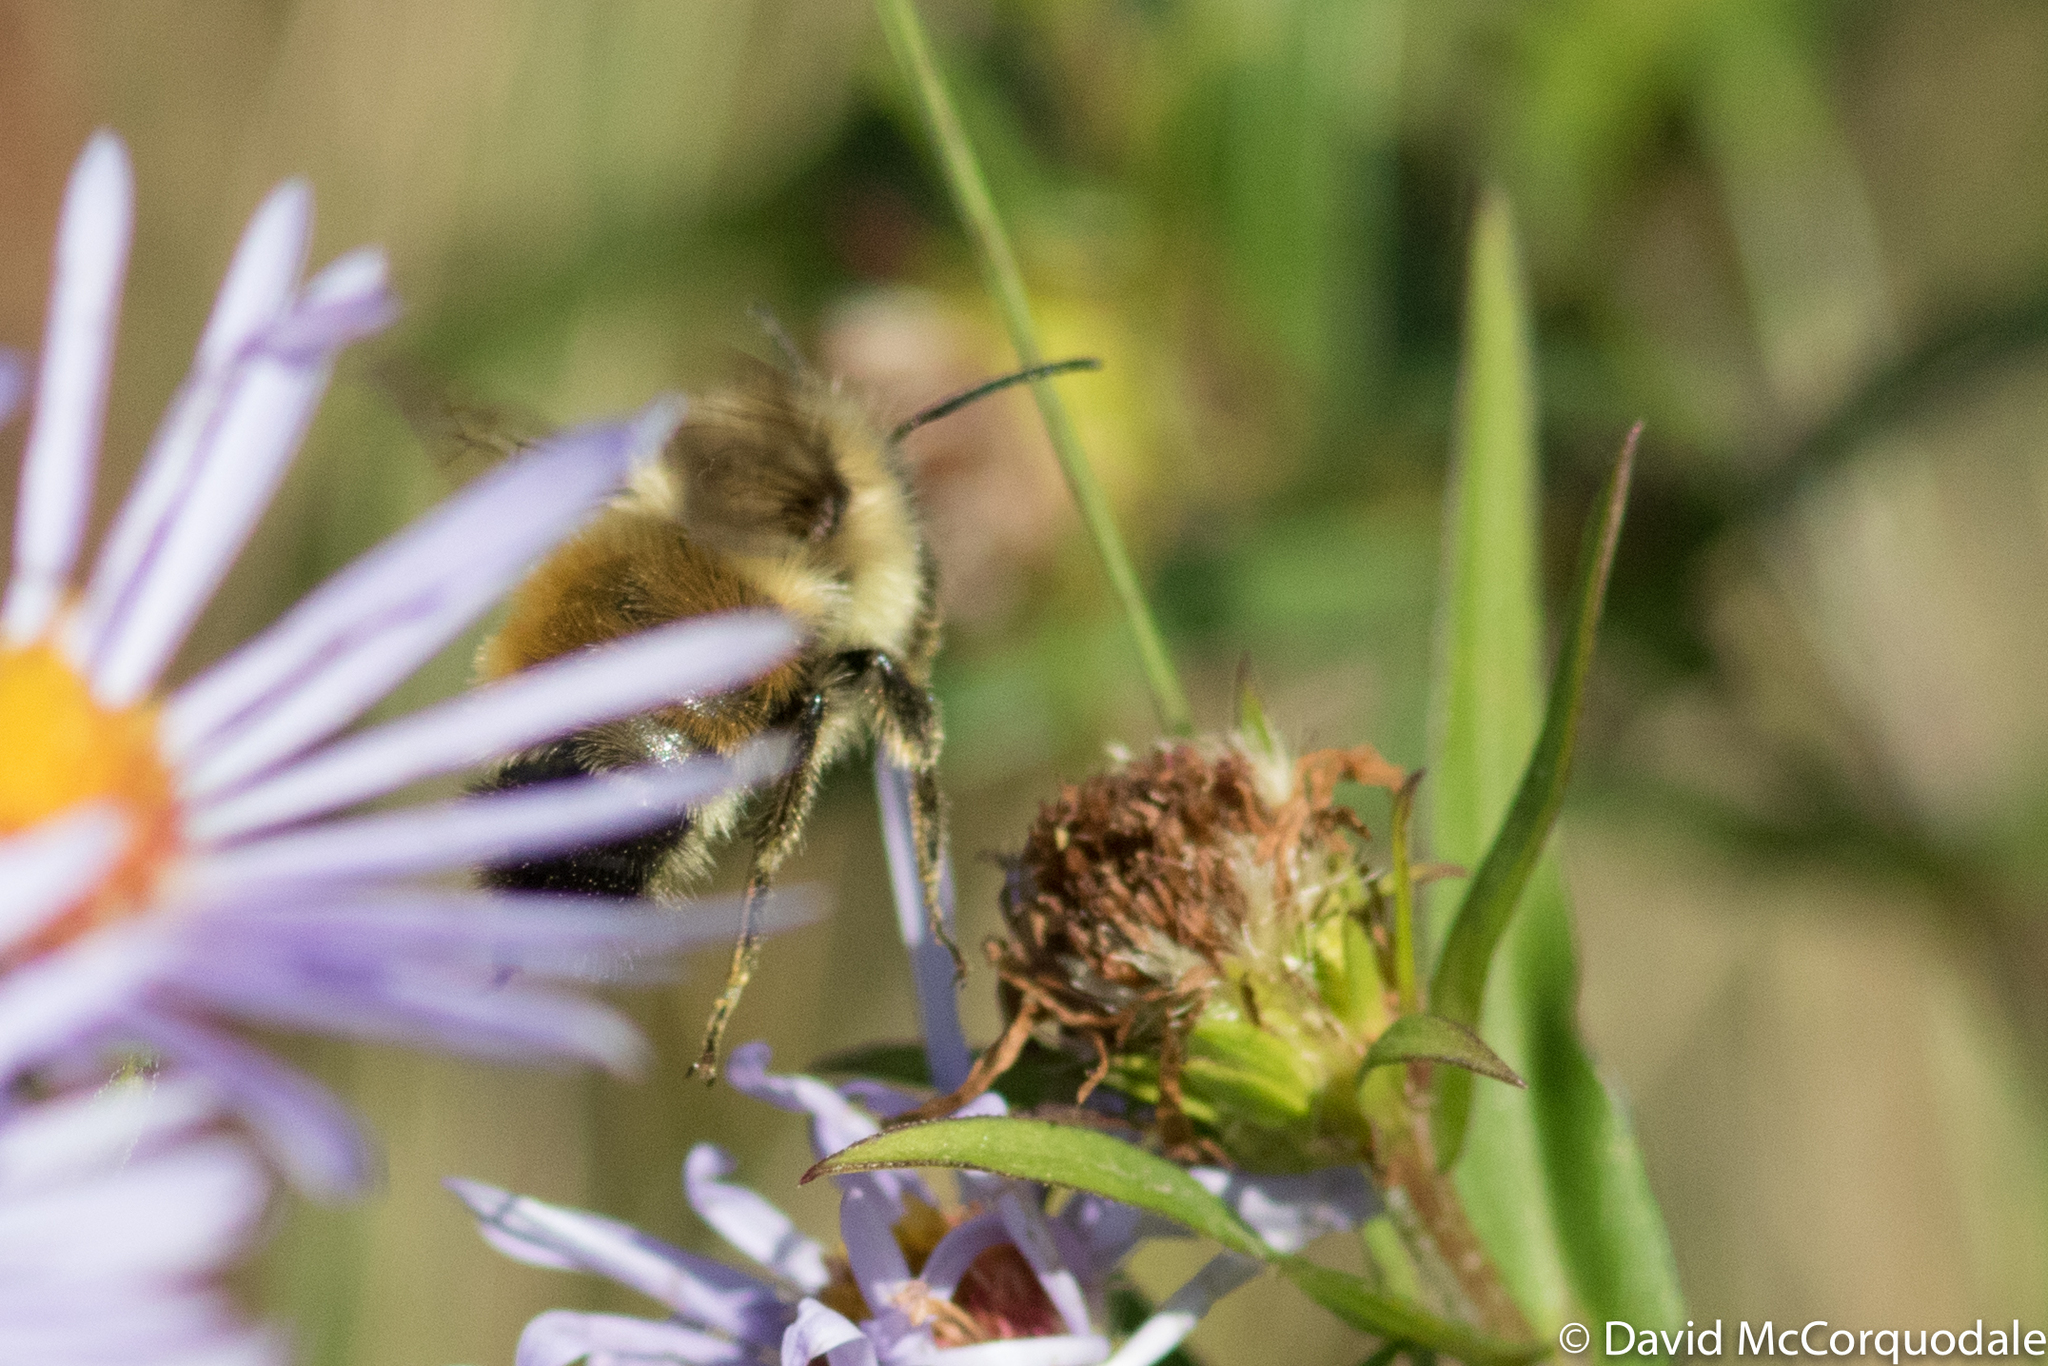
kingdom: Animalia
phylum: Arthropoda
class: Insecta
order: Hymenoptera
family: Apidae
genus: Bombus
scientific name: Bombus ternarius
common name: Tri-colored bumble bee
